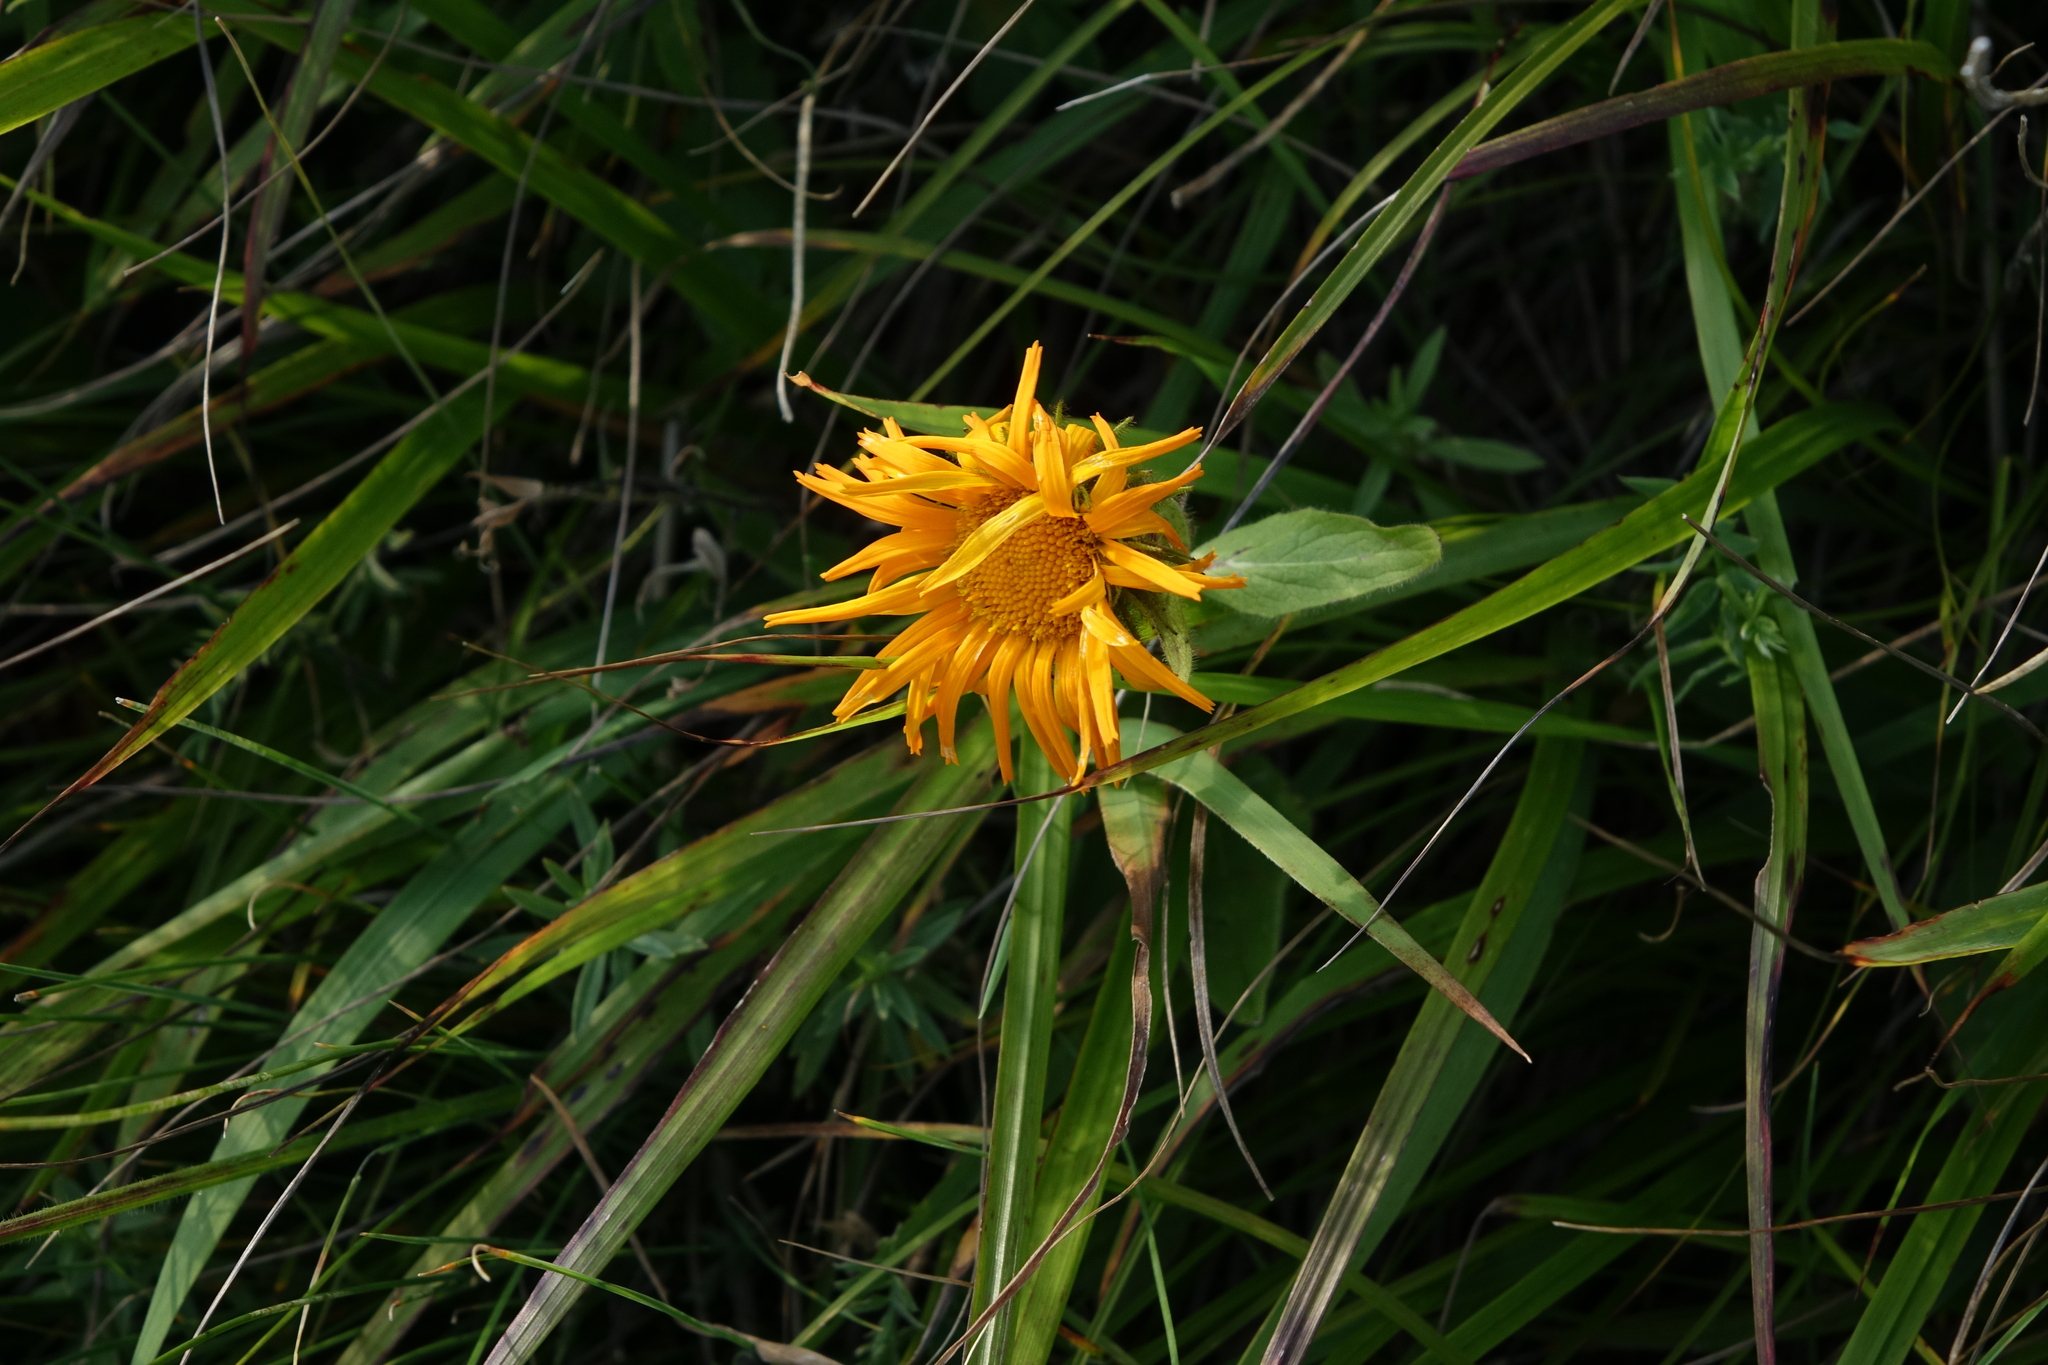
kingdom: Plantae
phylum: Tracheophyta
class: Magnoliopsida
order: Asterales
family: Asteraceae
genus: Pentanema
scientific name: Pentanema orientale
